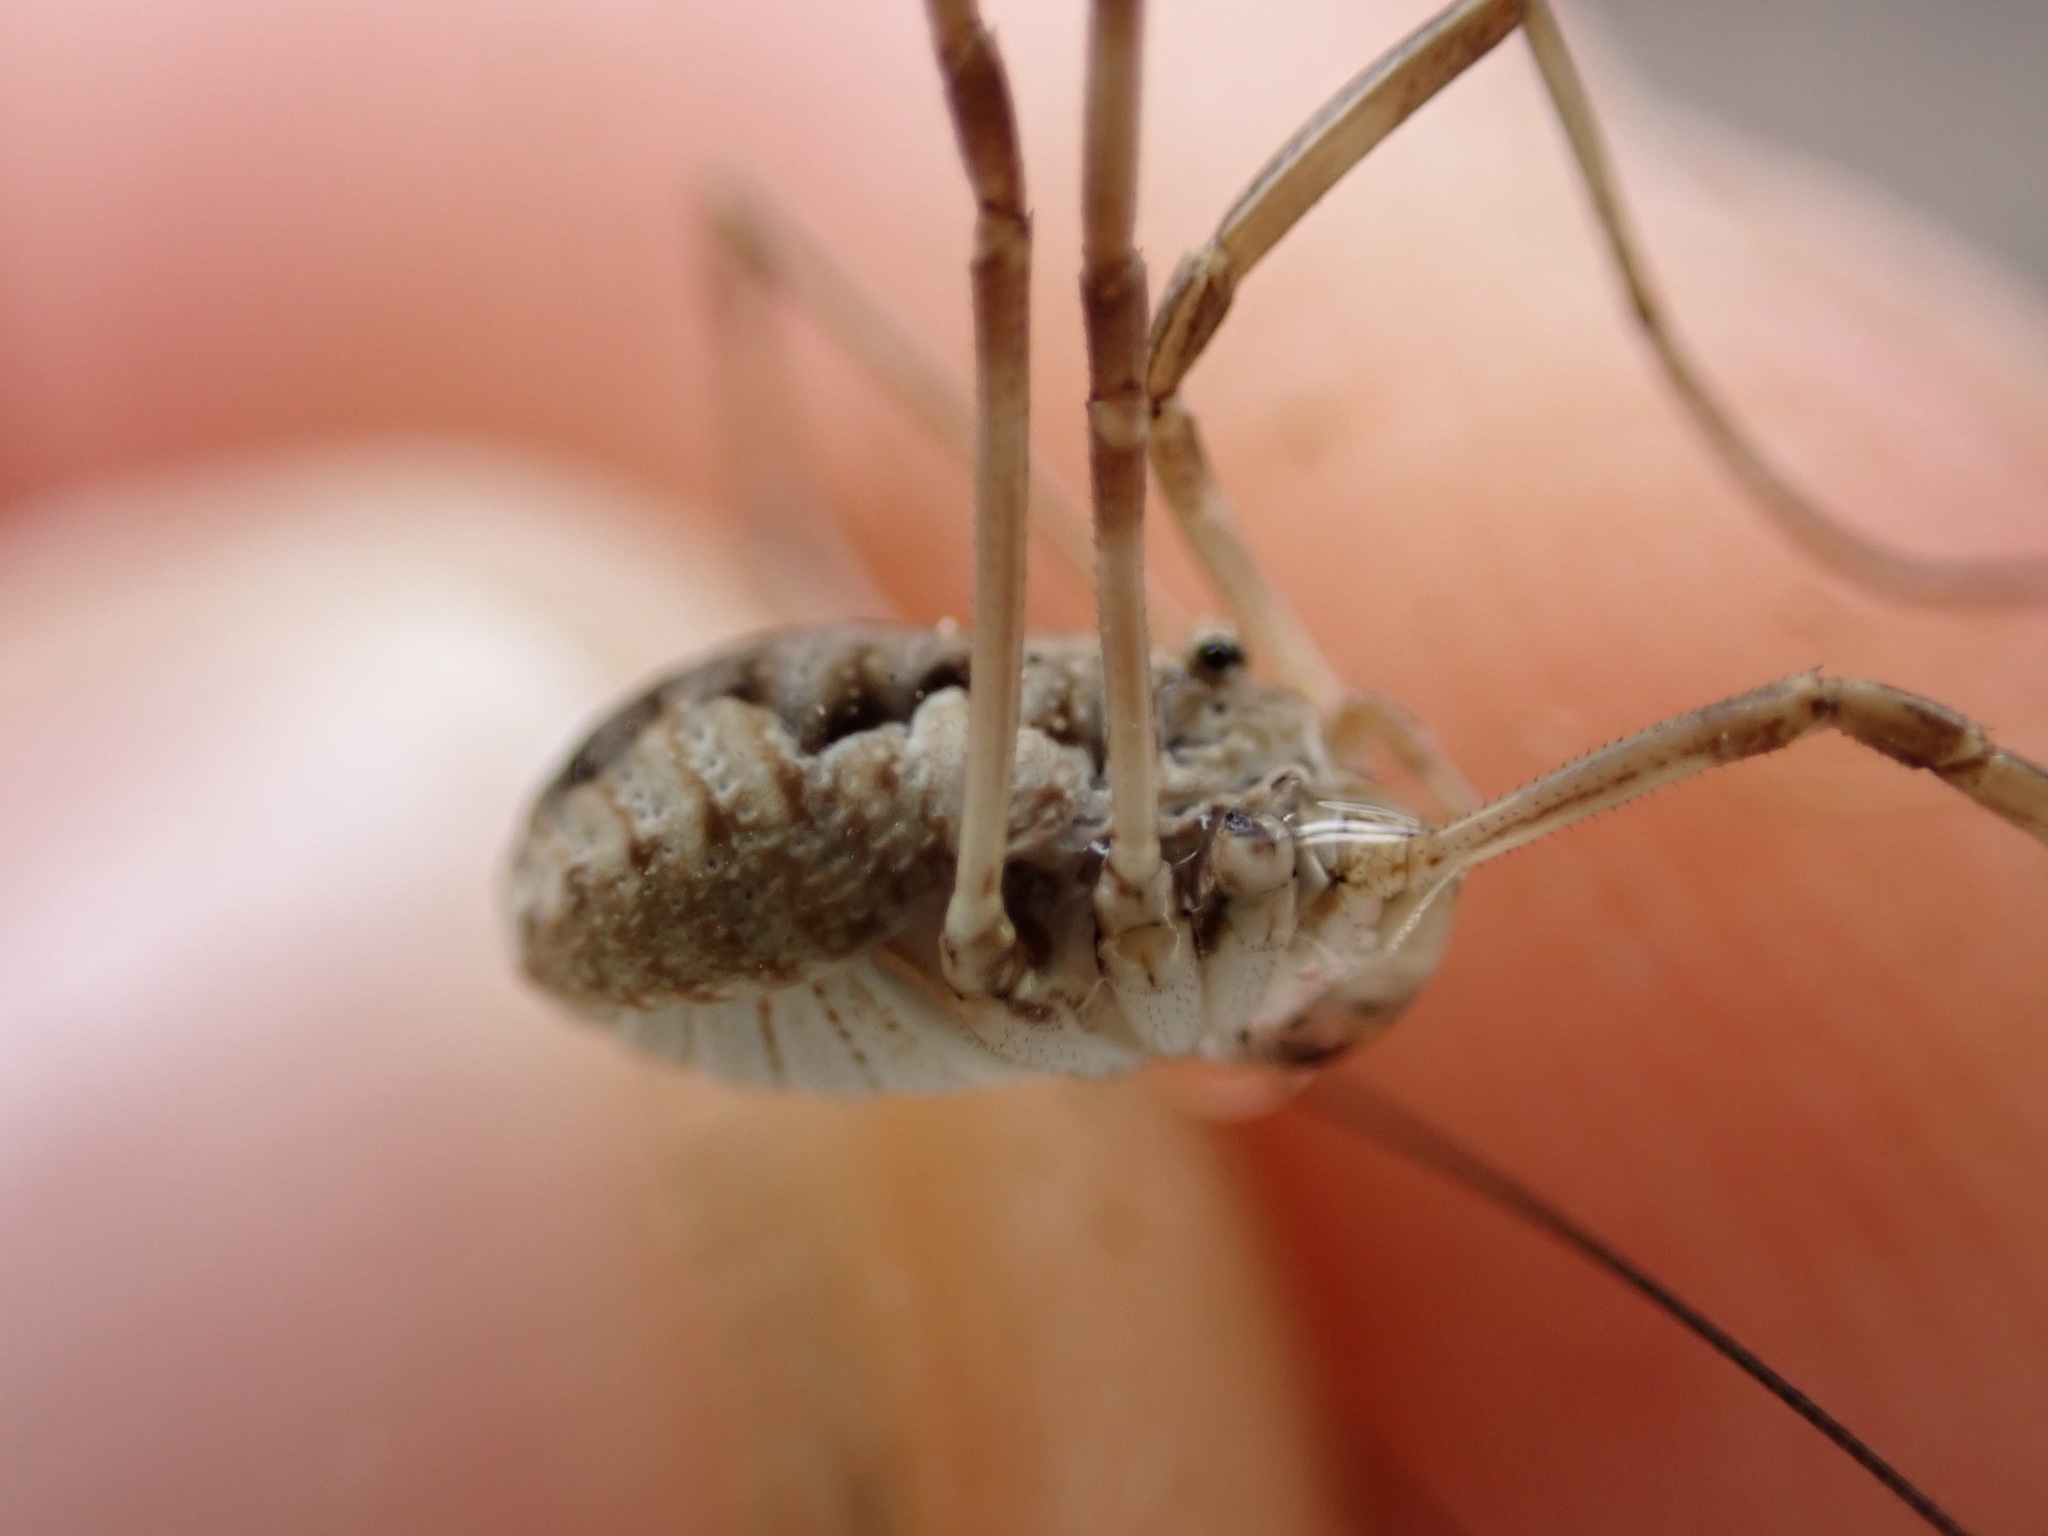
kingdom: Animalia
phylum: Arthropoda
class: Arachnida
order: Opiliones
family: Phalangiidae
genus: Phalangium
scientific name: Phalangium opilio
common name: Daddy longleg
